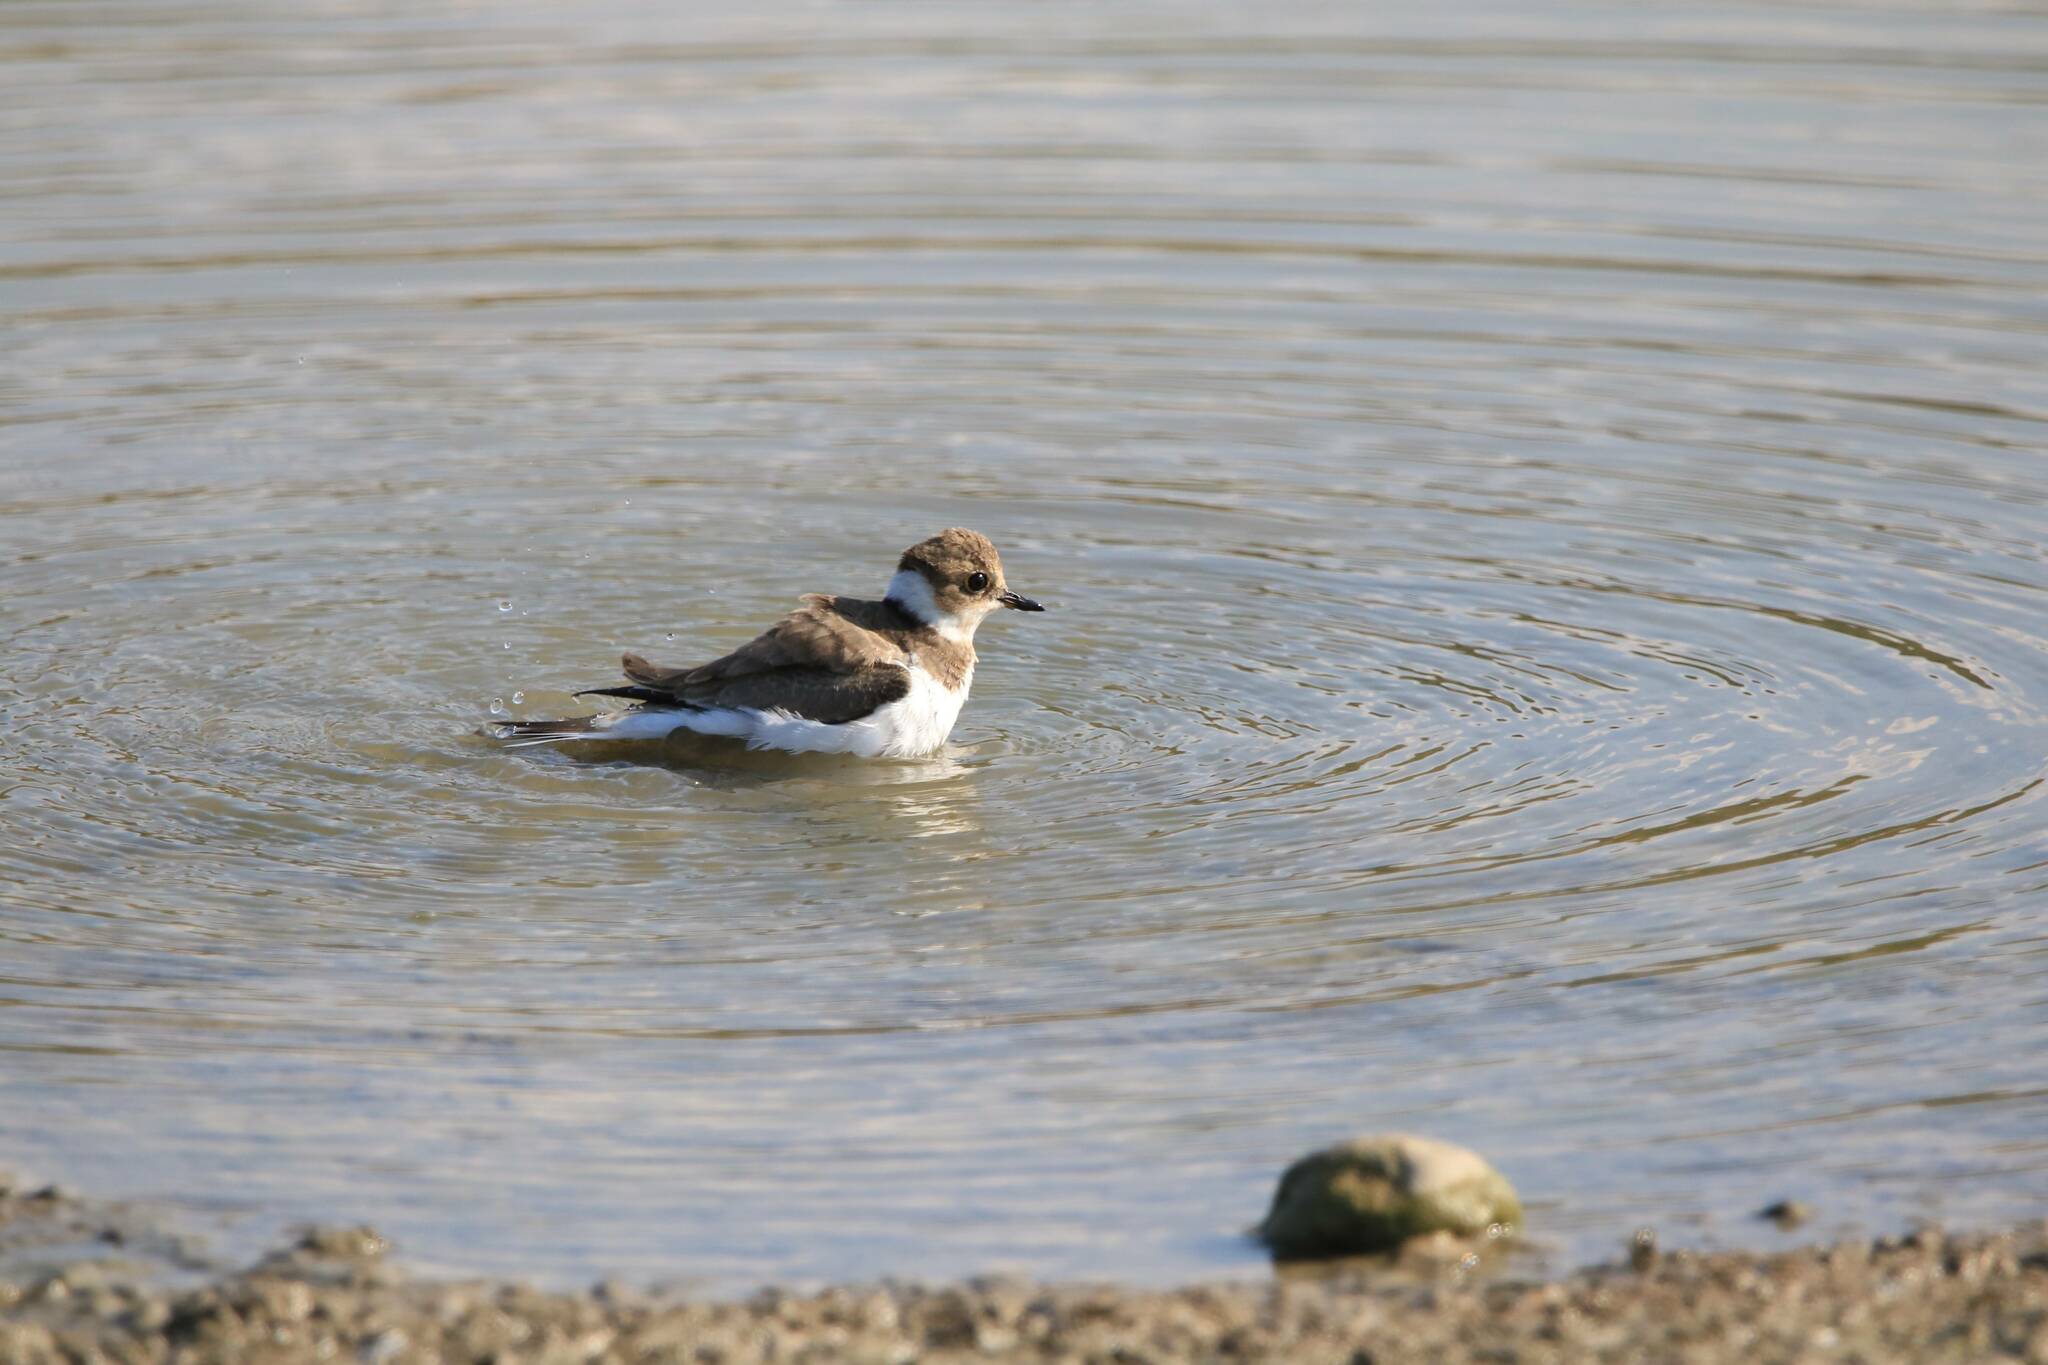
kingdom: Animalia
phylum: Chordata
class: Aves
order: Charadriiformes
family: Charadriidae
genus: Charadrius
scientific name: Charadrius dubius
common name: Little ringed plover
